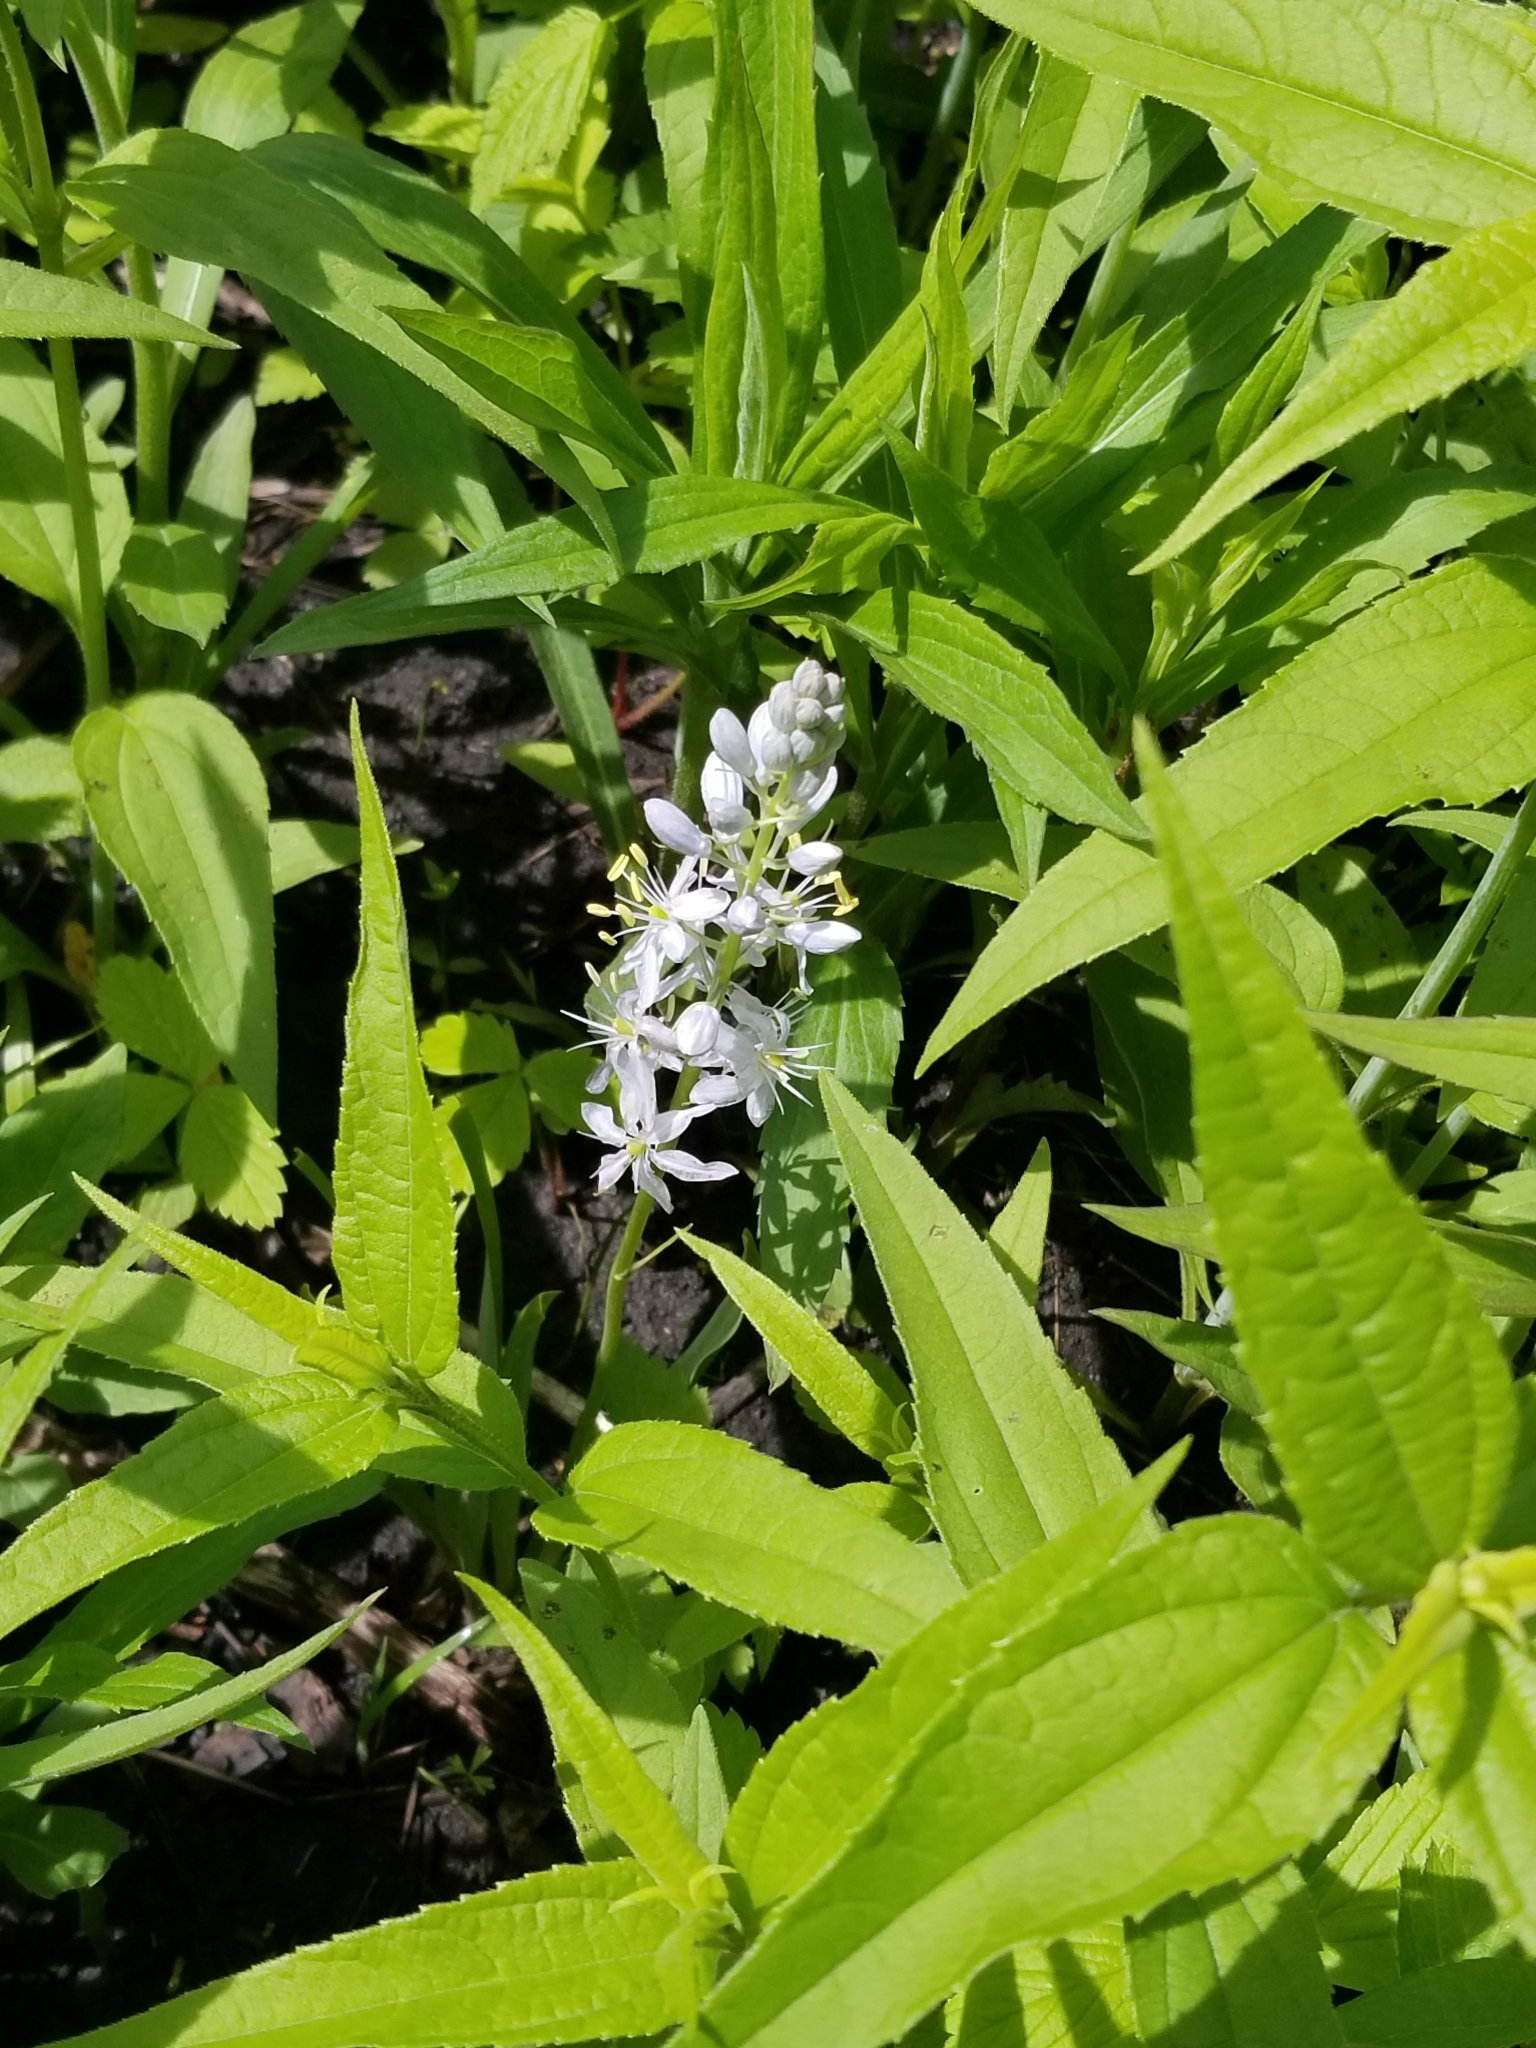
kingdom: Plantae
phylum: Tracheophyta
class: Liliopsida
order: Asparagales
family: Asparagaceae
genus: Camassia
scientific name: Camassia scilloides
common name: Wild hyacinth
